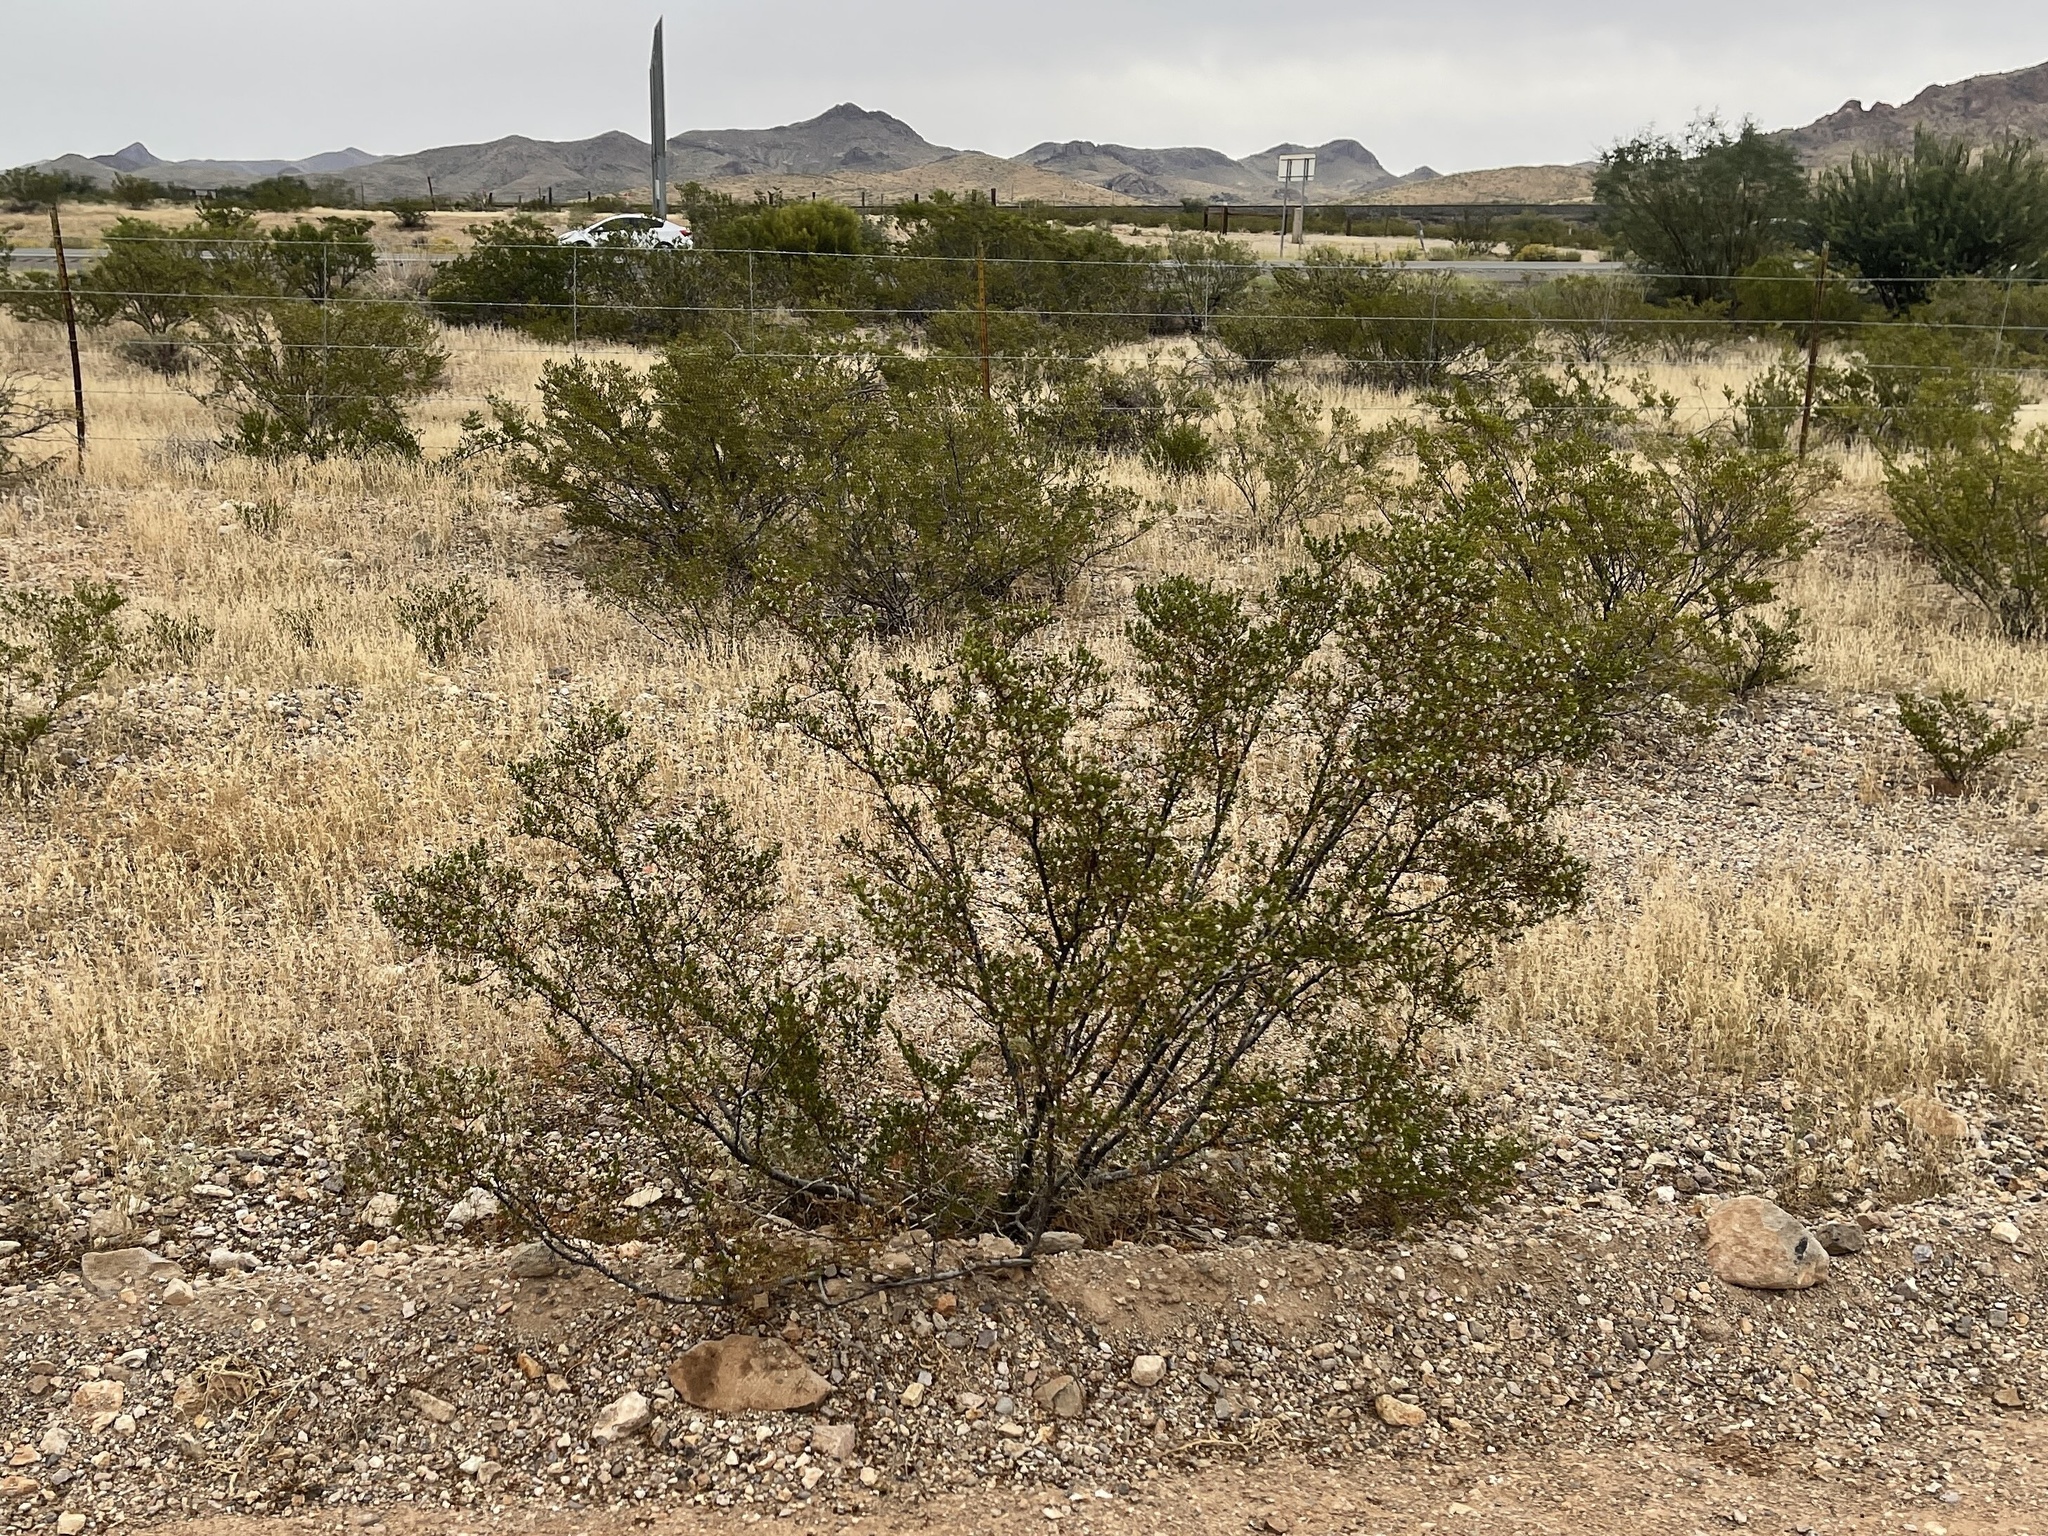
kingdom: Plantae
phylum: Tracheophyta
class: Magnoliopsida
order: Zygophyllales
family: Zygophyllaceae
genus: Larrea
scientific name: Larrea tridentata
